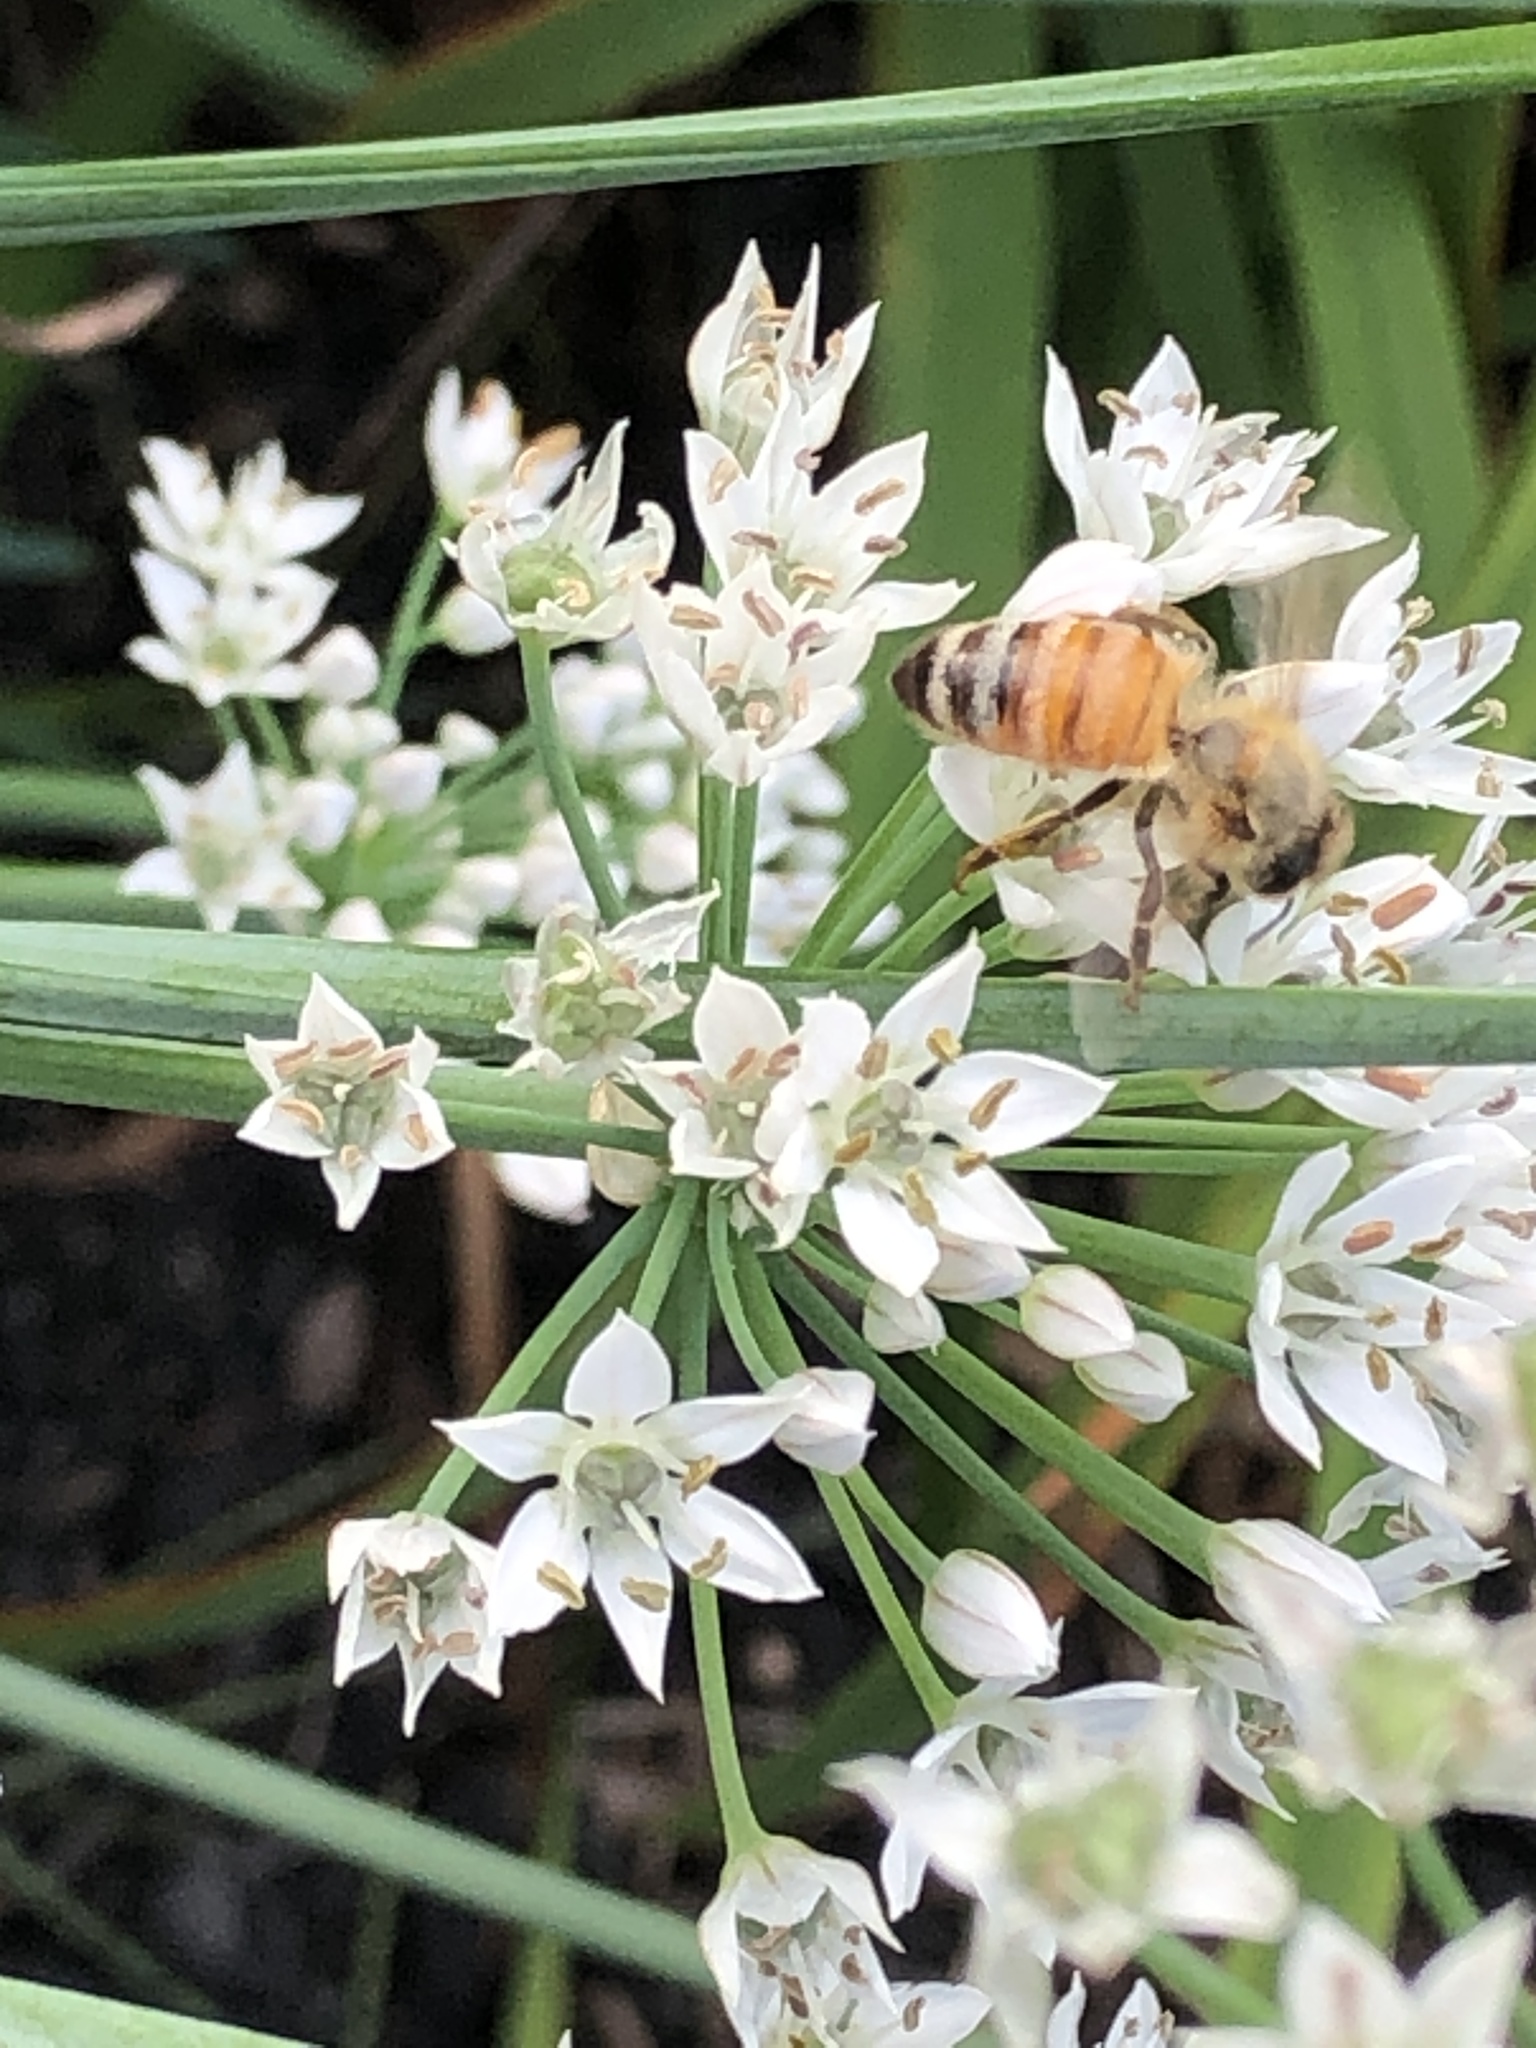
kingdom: Plantae
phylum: Tracheophyta
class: Liliopsida
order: Asparagales
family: Amaryllidaceae
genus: Allium
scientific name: Allium tuberosum
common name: Chinese chives
